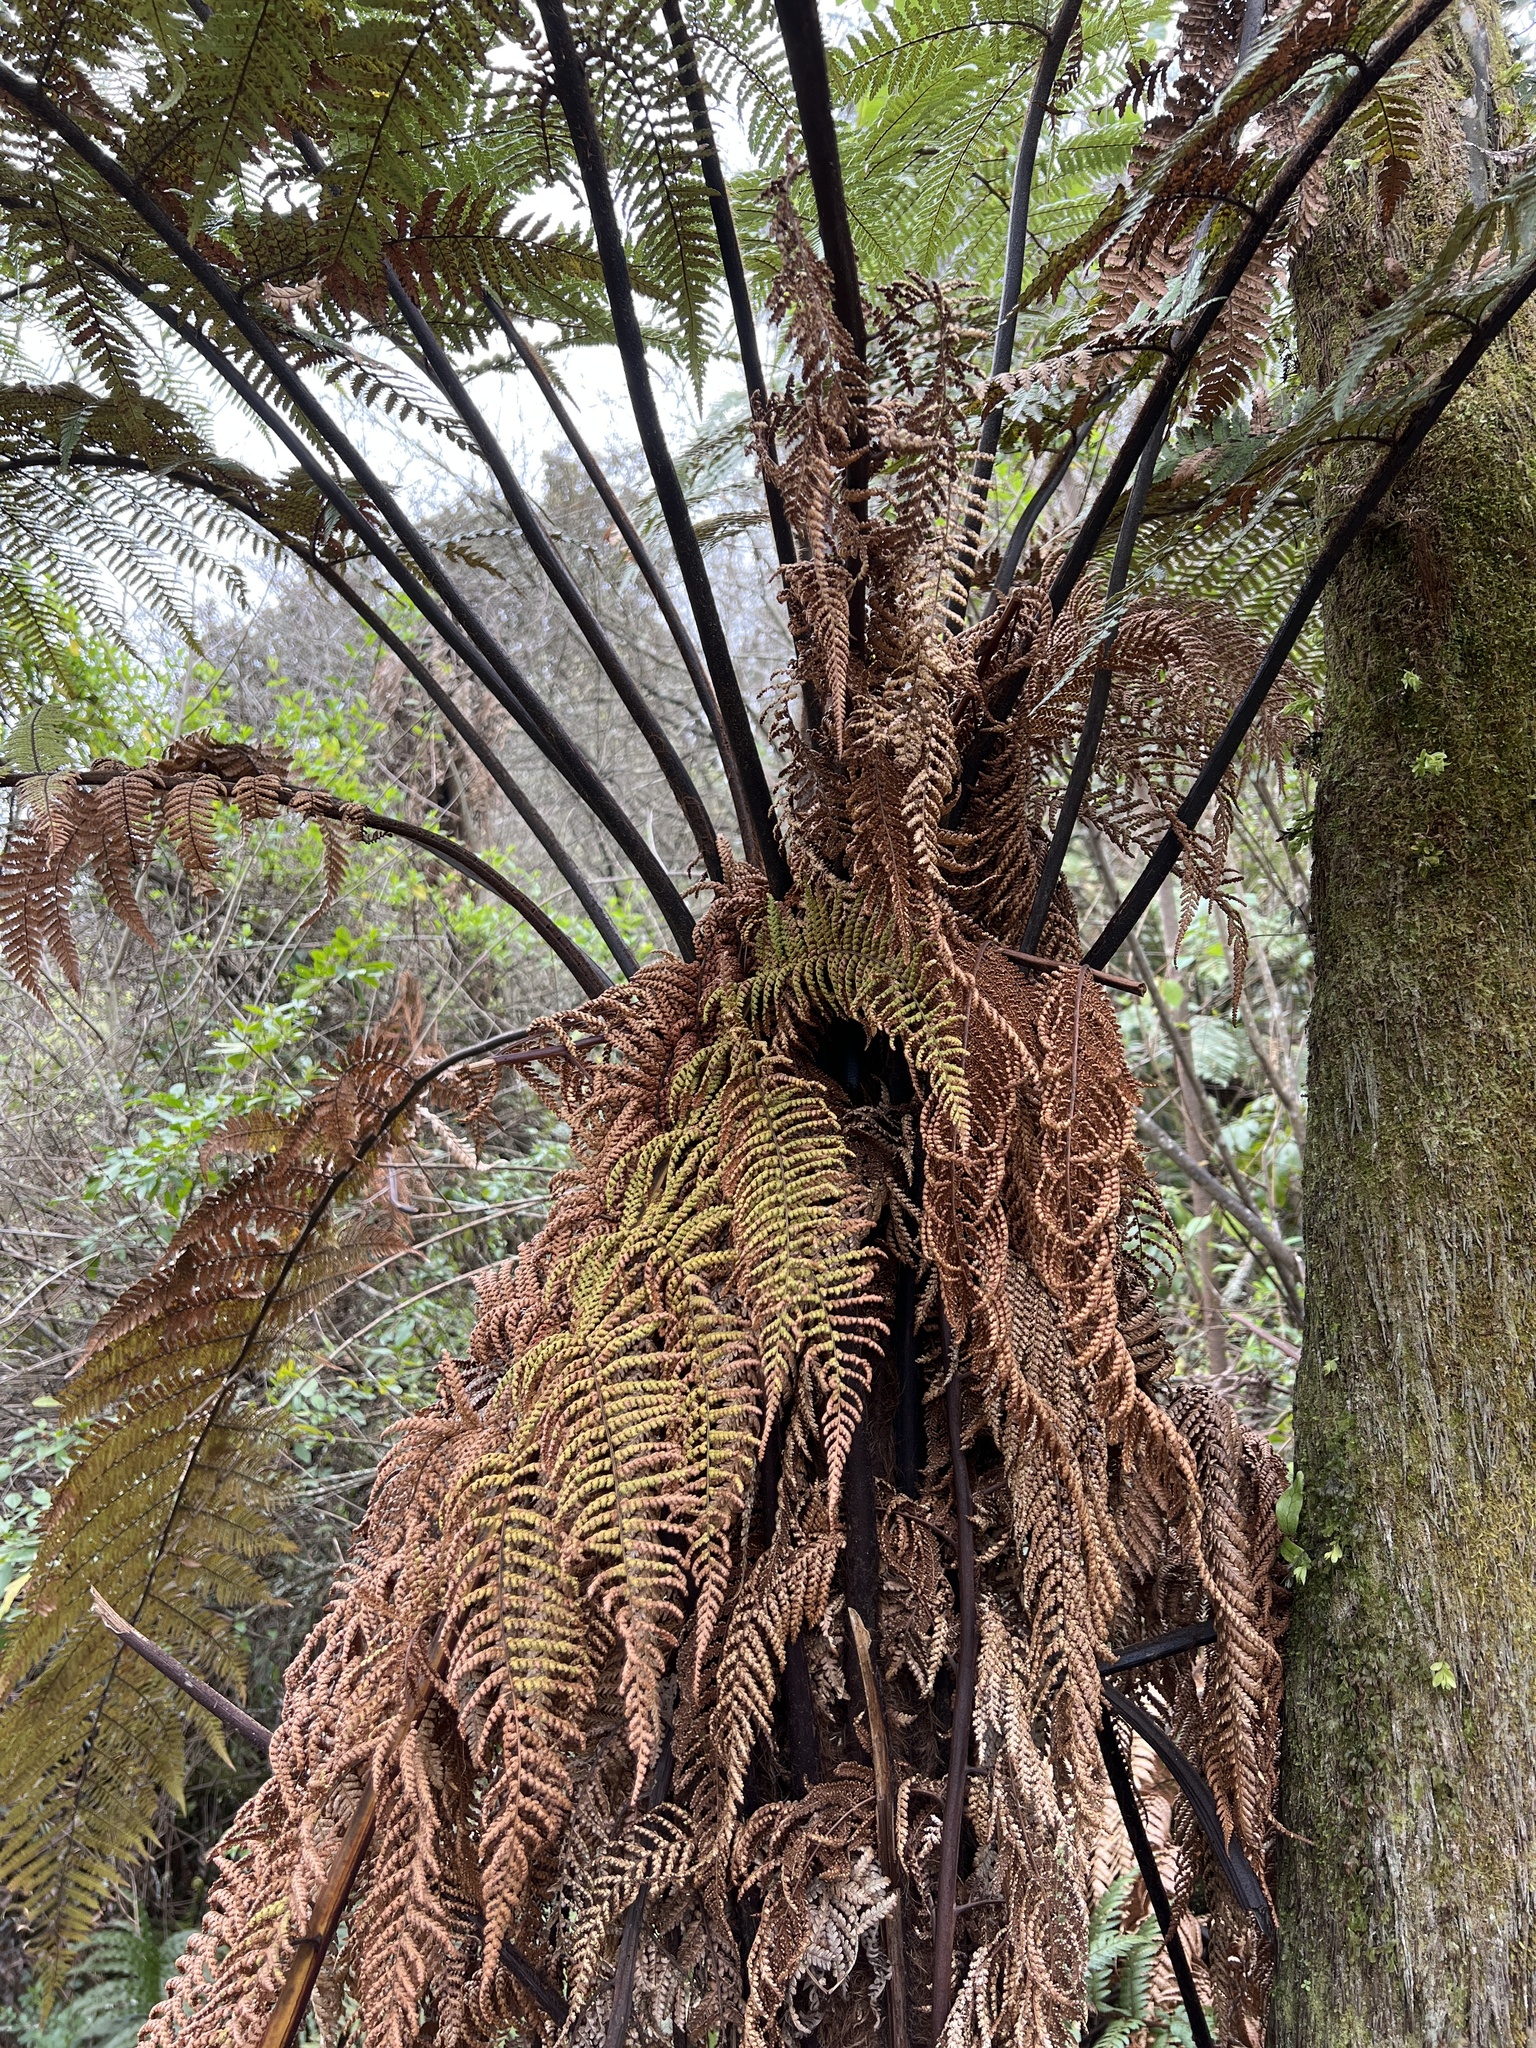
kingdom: Plantae
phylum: Tracheophyta
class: Polypodiopsida
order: Cyatheales
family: Dicksoniaceae
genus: Dicksonia
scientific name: Dicksonia squarrosa
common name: Hard treefern
